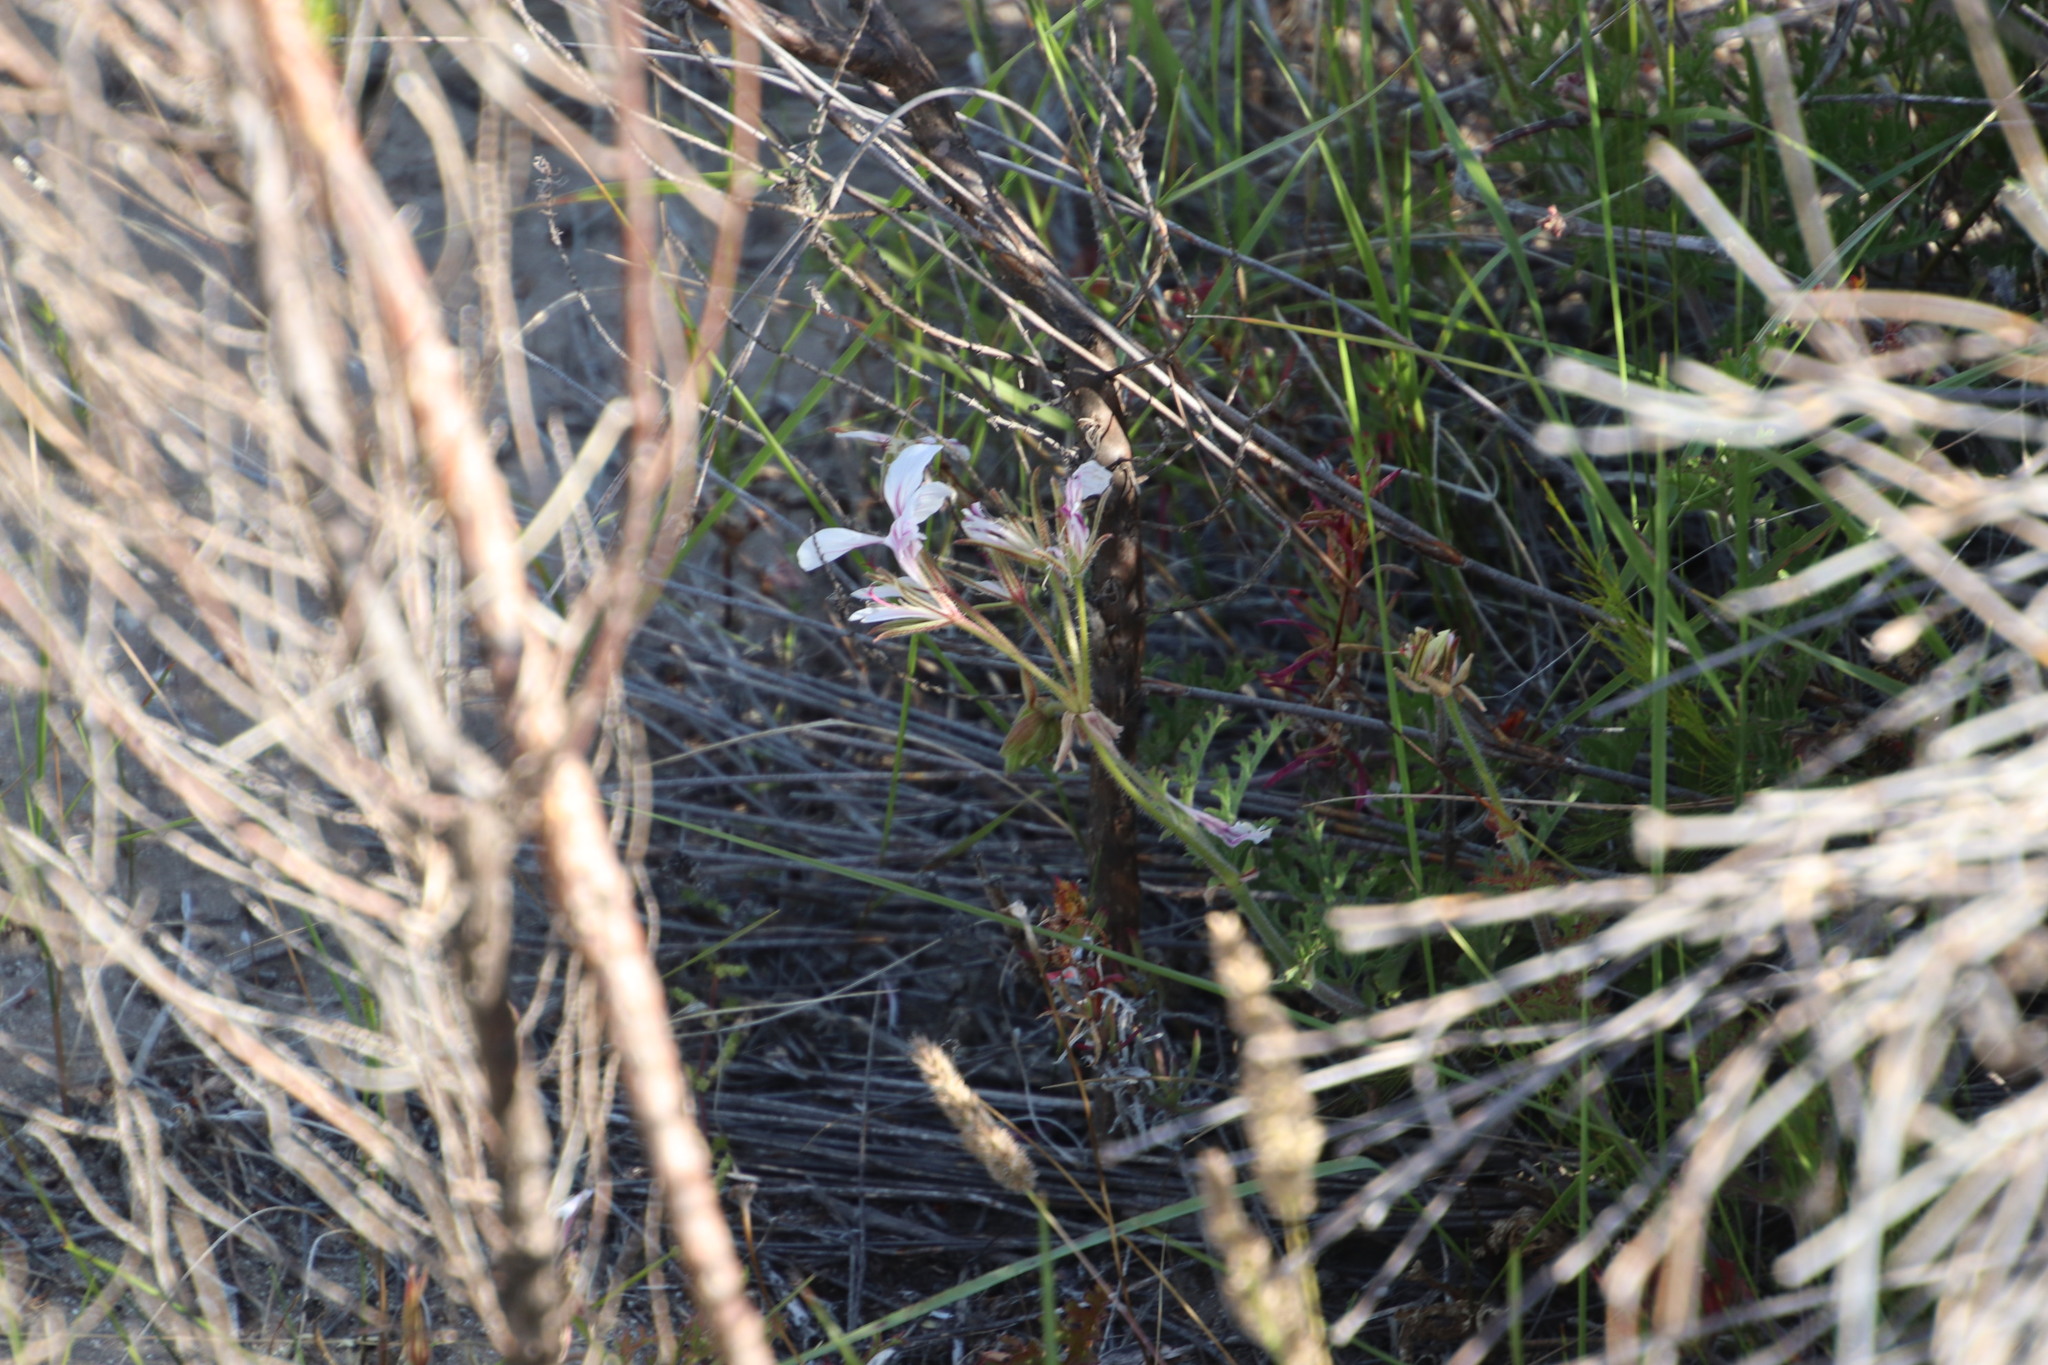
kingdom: Plantae
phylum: Tracheophyta
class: Magnoliopsida
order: Geraniales
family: Geraniaceae
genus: Pelargonium
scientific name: Pelargonium longicaule
